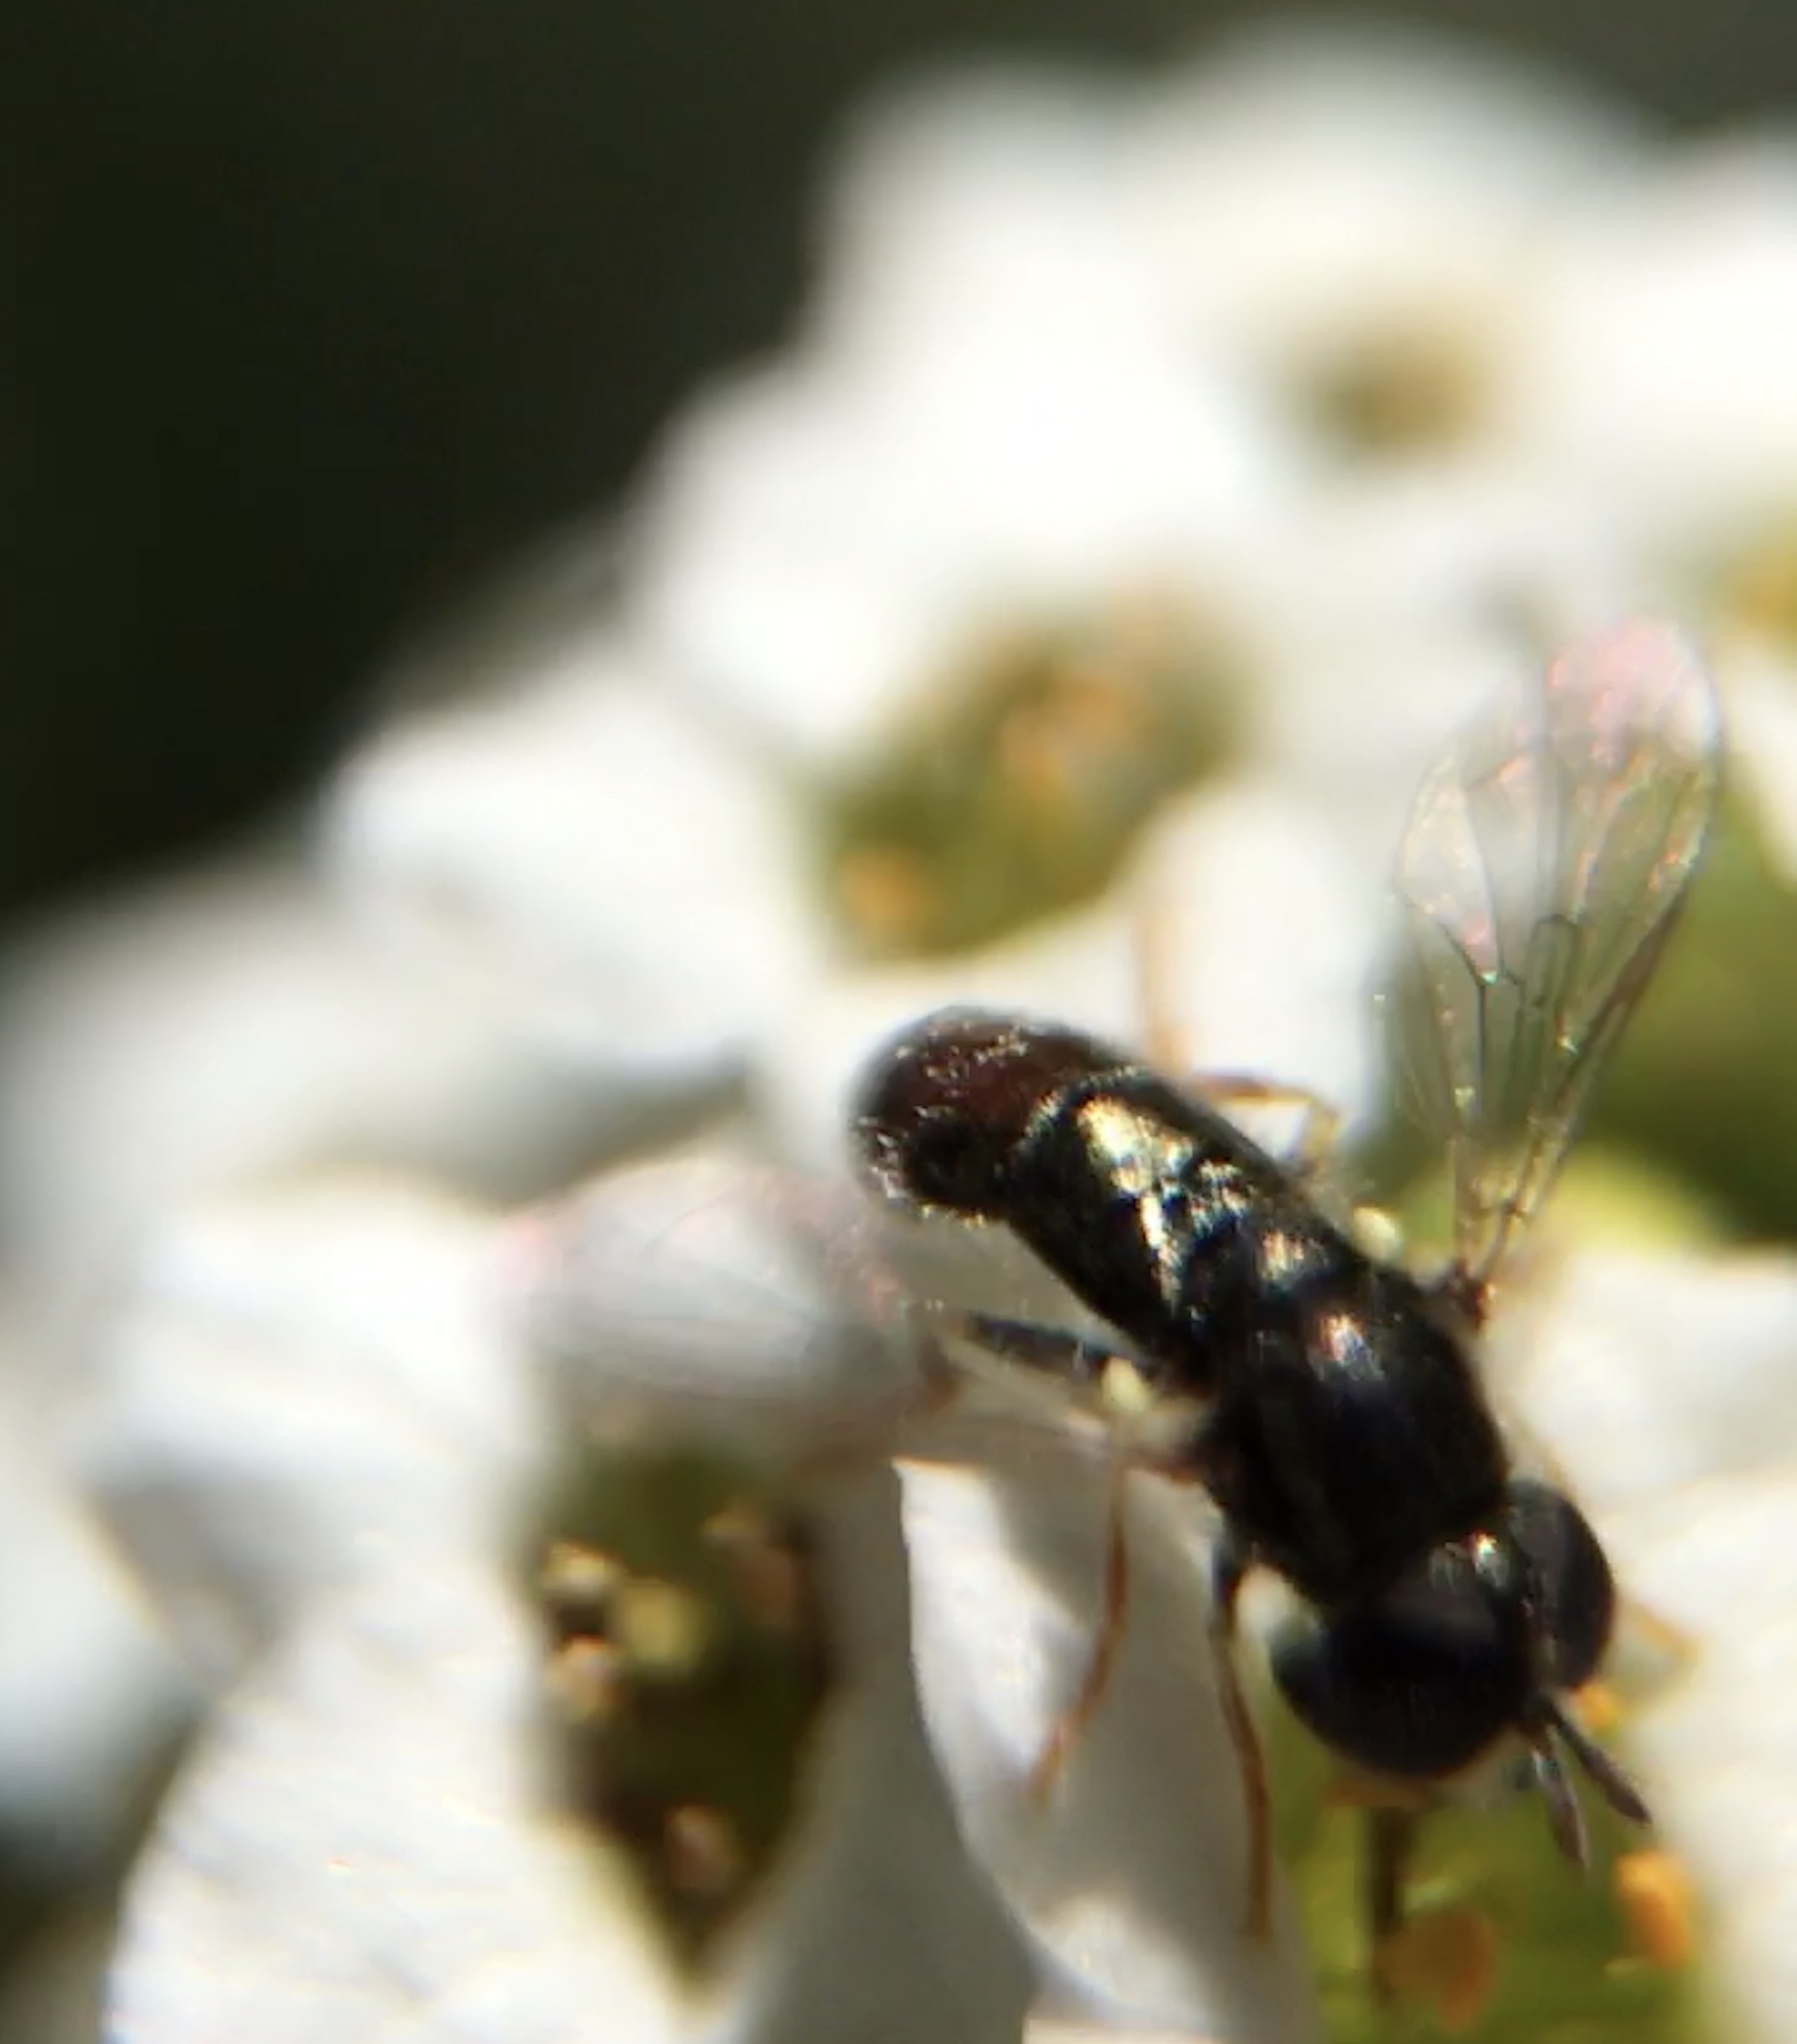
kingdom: Animalia
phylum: Arthropoda
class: Insecta
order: Diptera
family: Syrphidae
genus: Paragus
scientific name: Paragus haemorrhous
